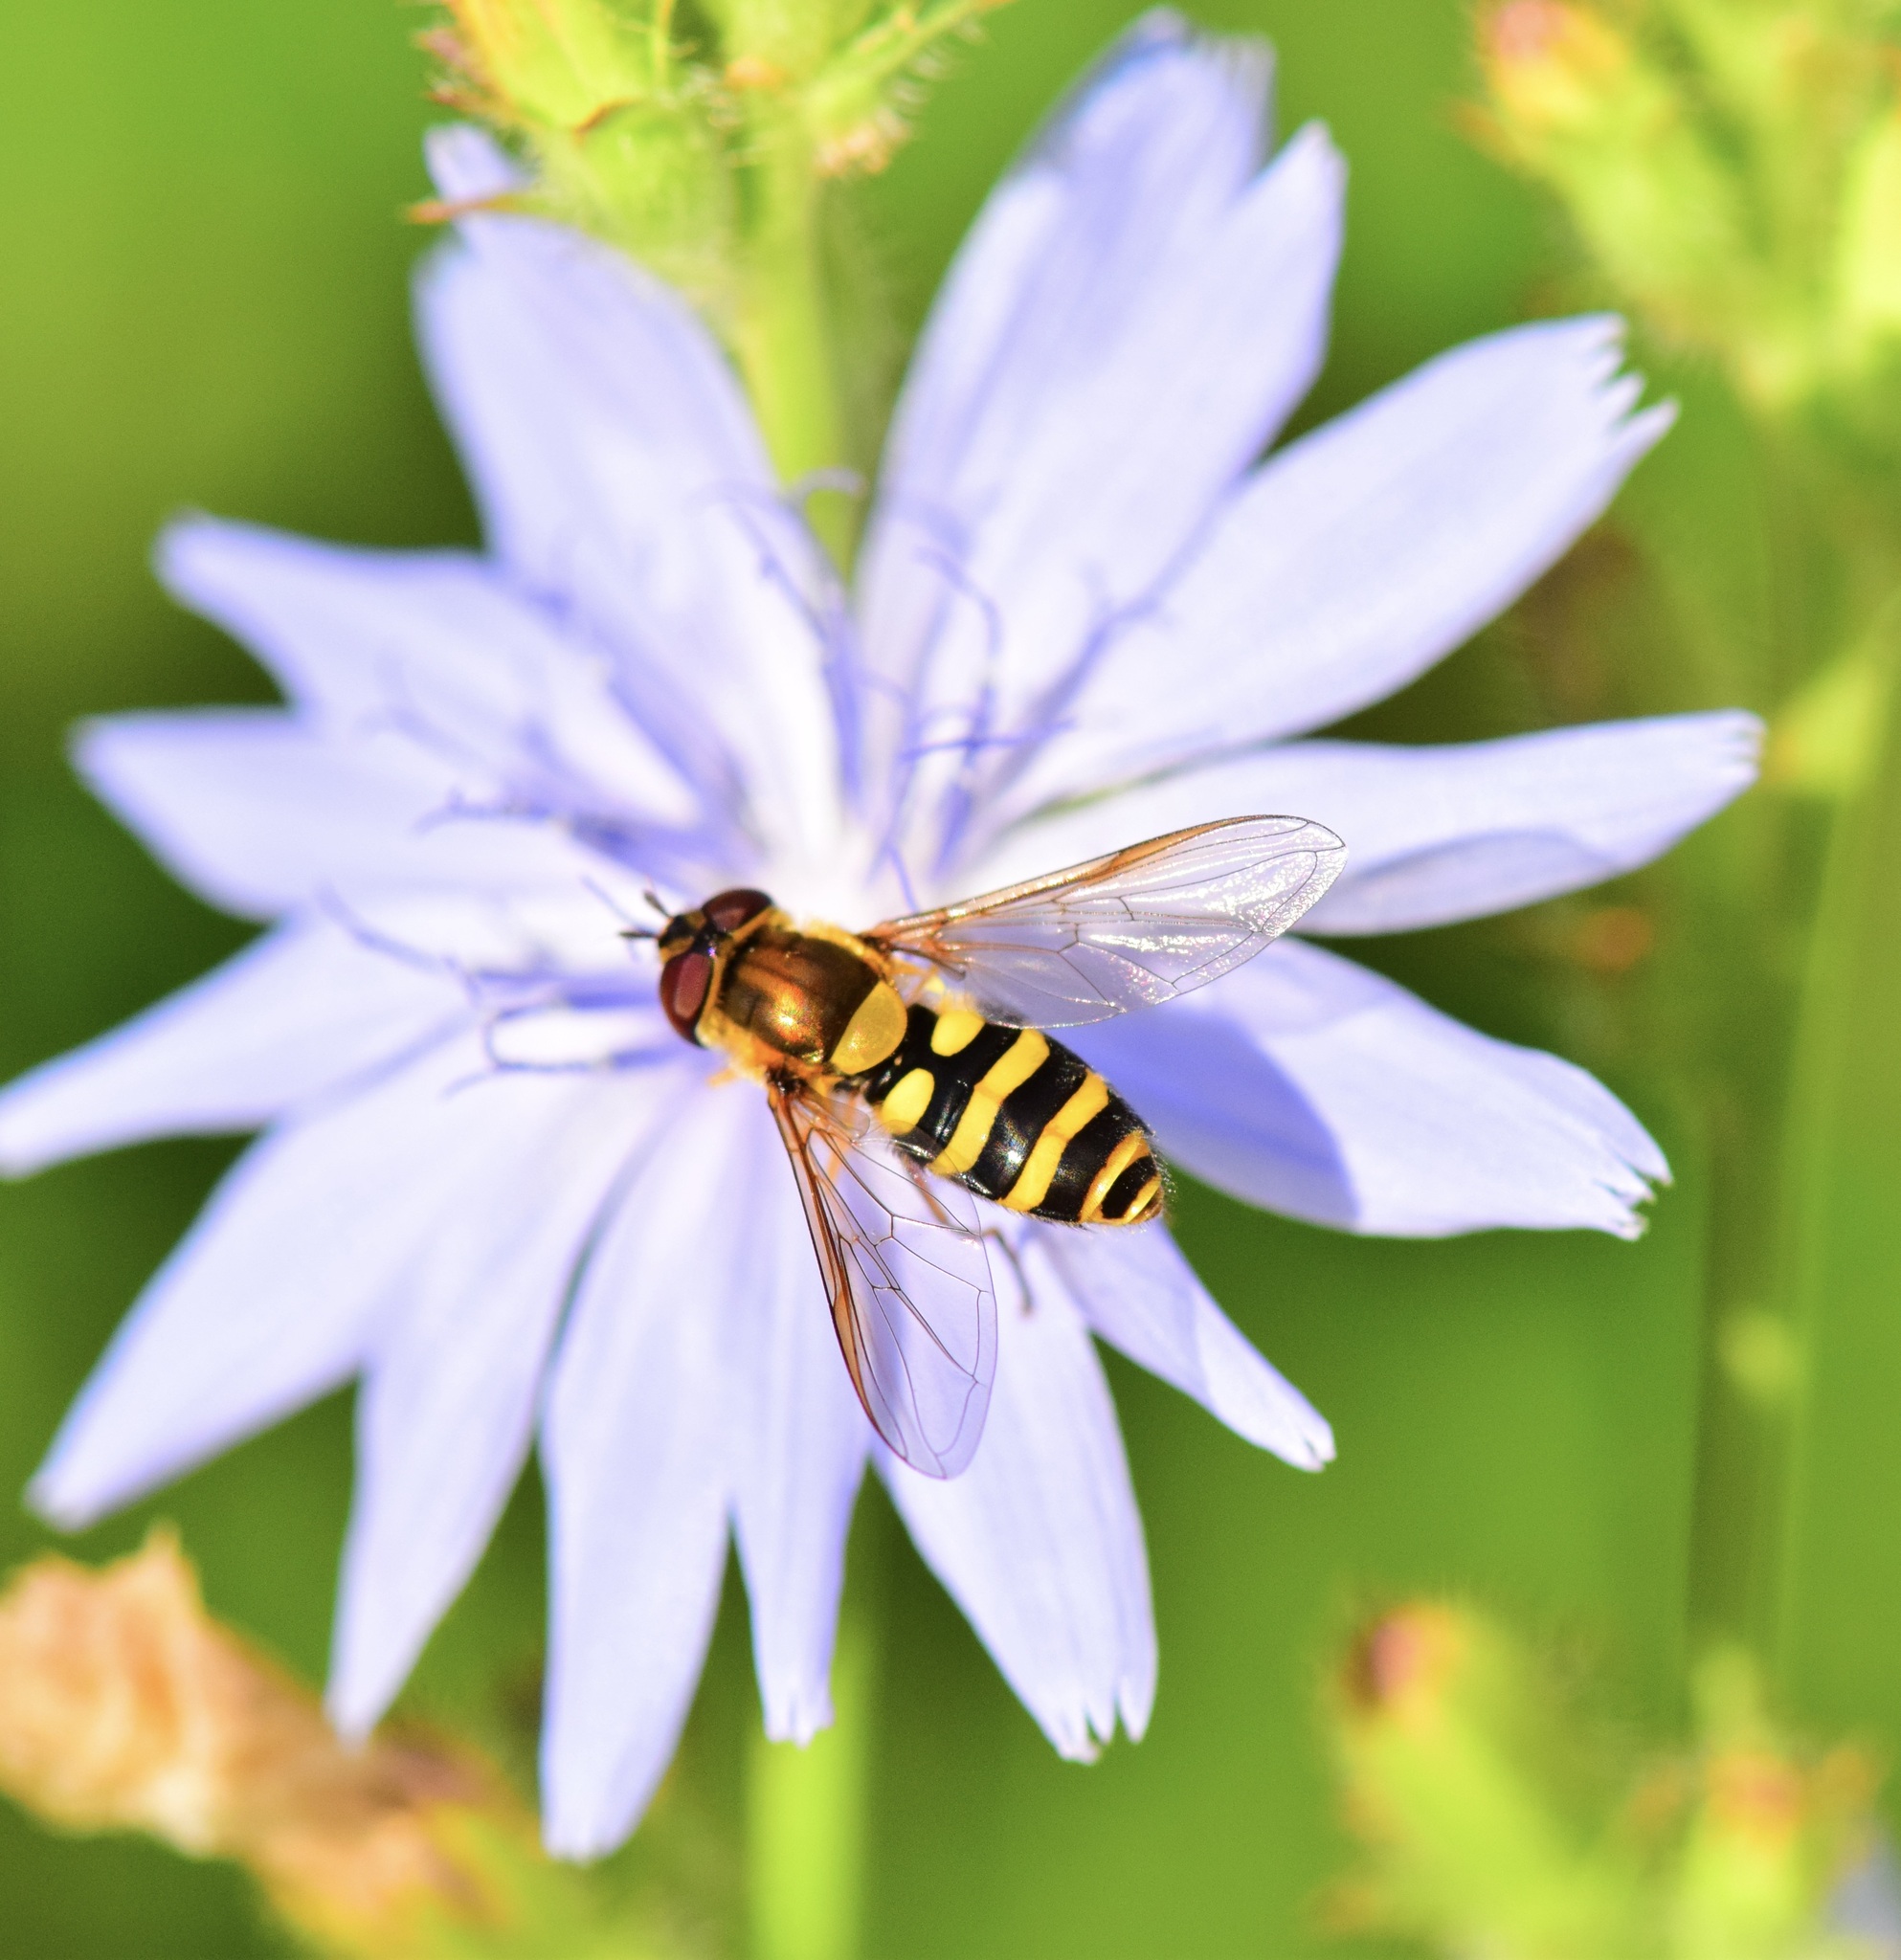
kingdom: Animalia
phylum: Arthropoda
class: Insecta
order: Diptera
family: Syrphidae
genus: Syrphus
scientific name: Syrphus ribesii
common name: Common flower fly
